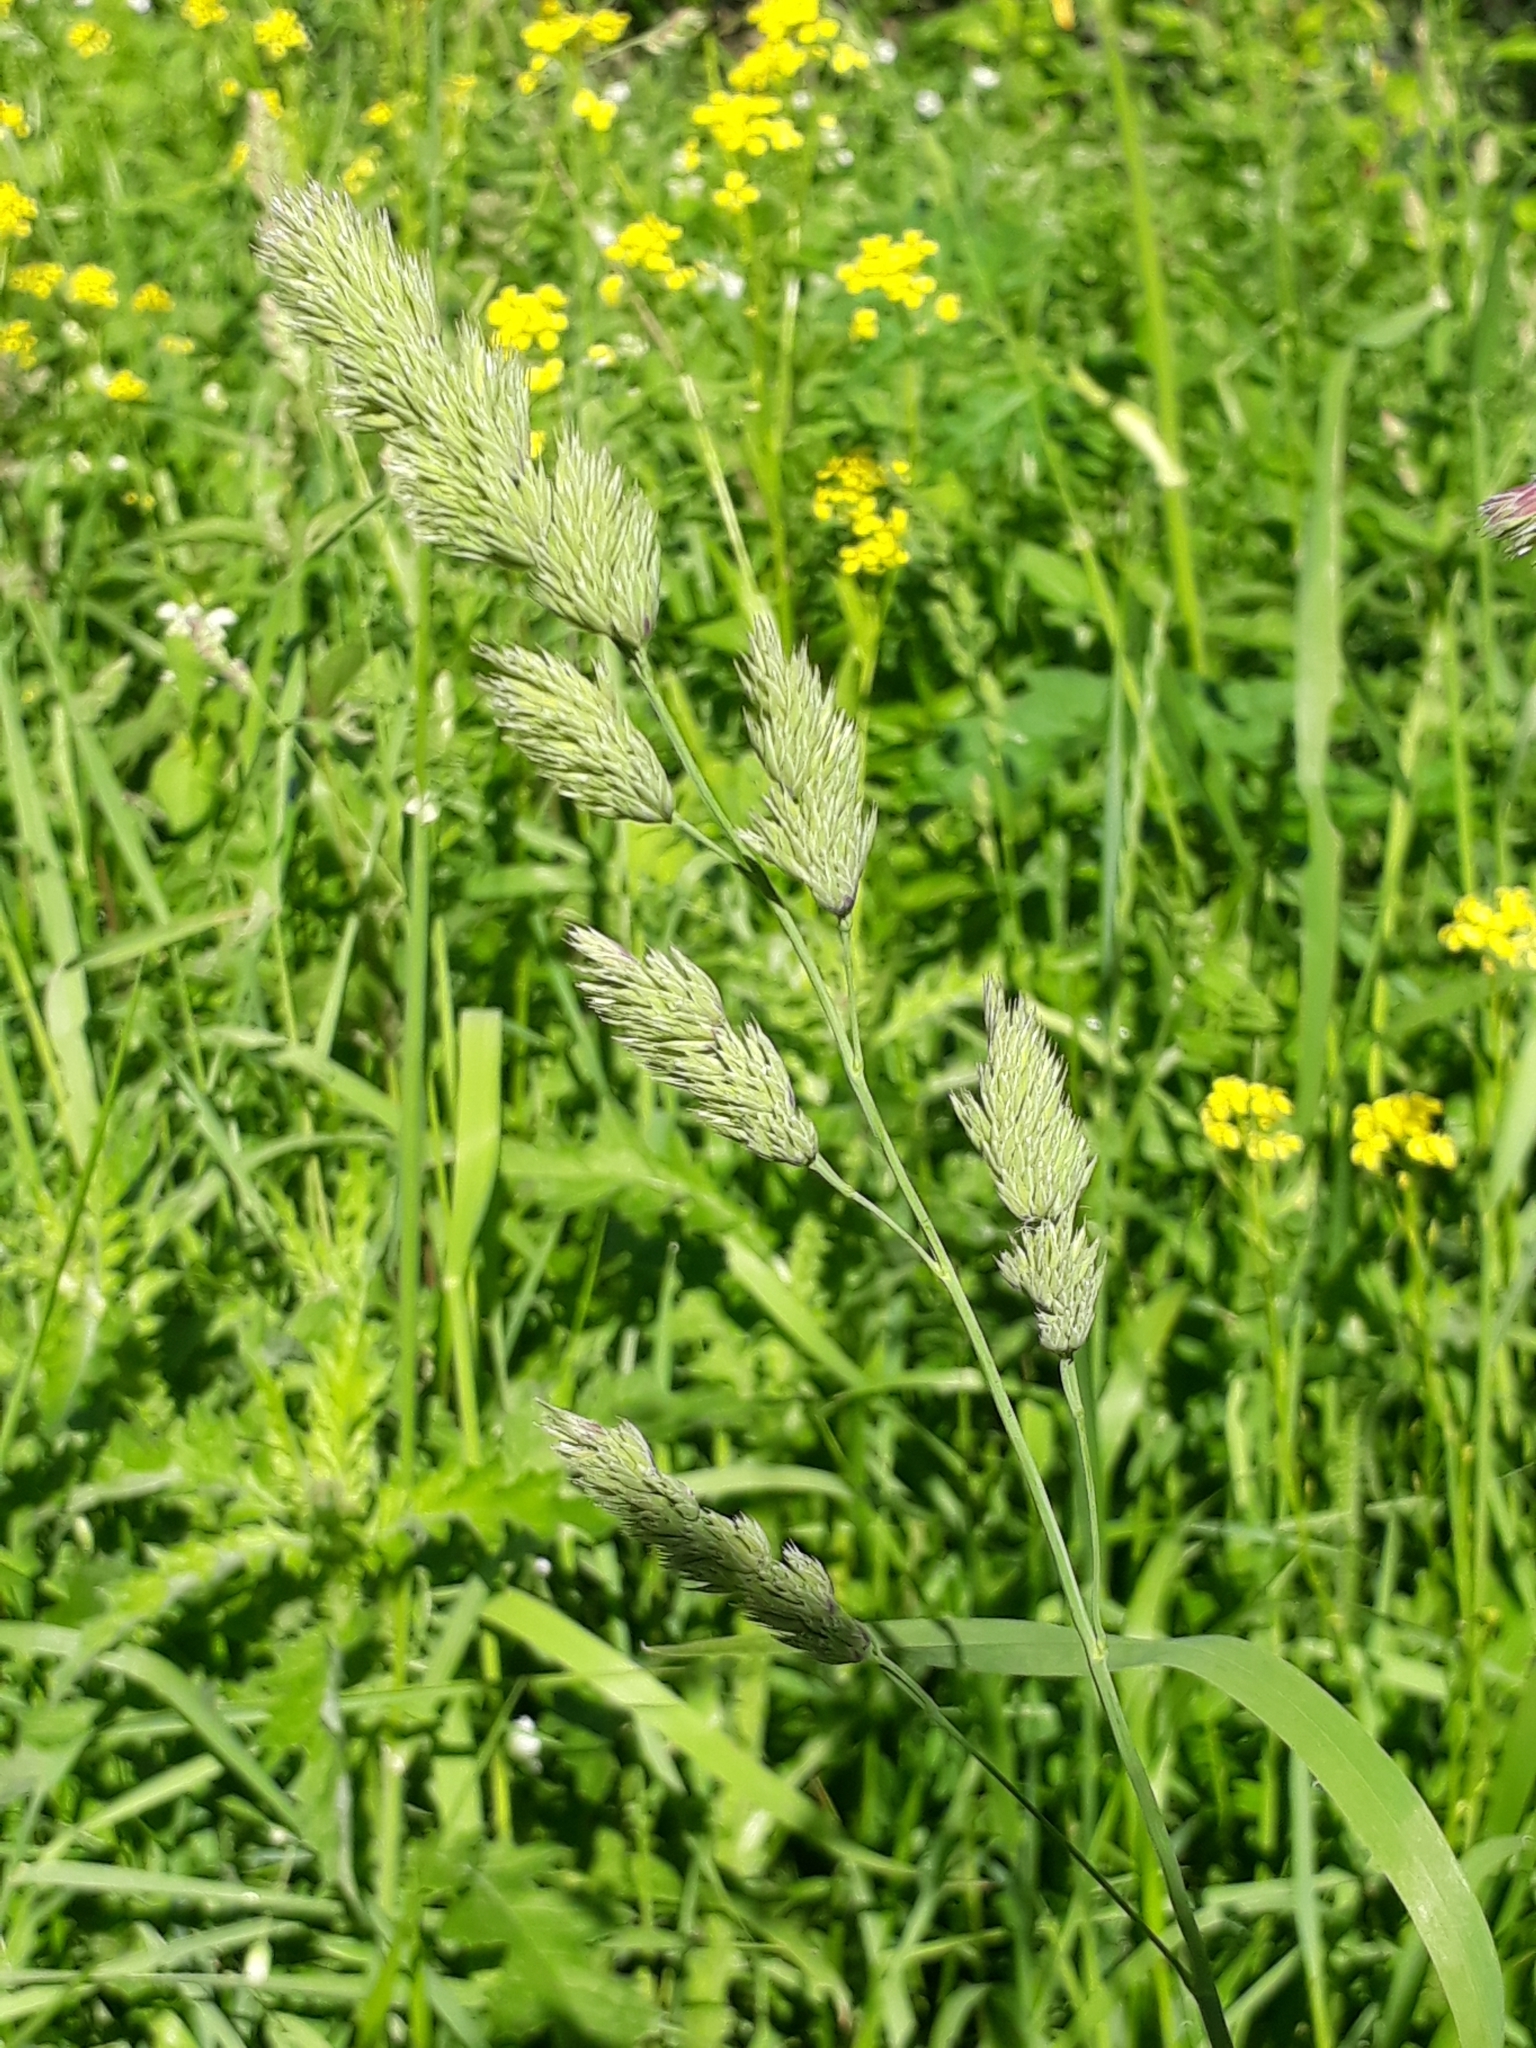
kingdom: Plantae
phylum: Tracheophyta
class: Liliopsida
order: Poales
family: Poaceae
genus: Dactylis
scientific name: Dactylis glomerata
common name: Orchardgrass
